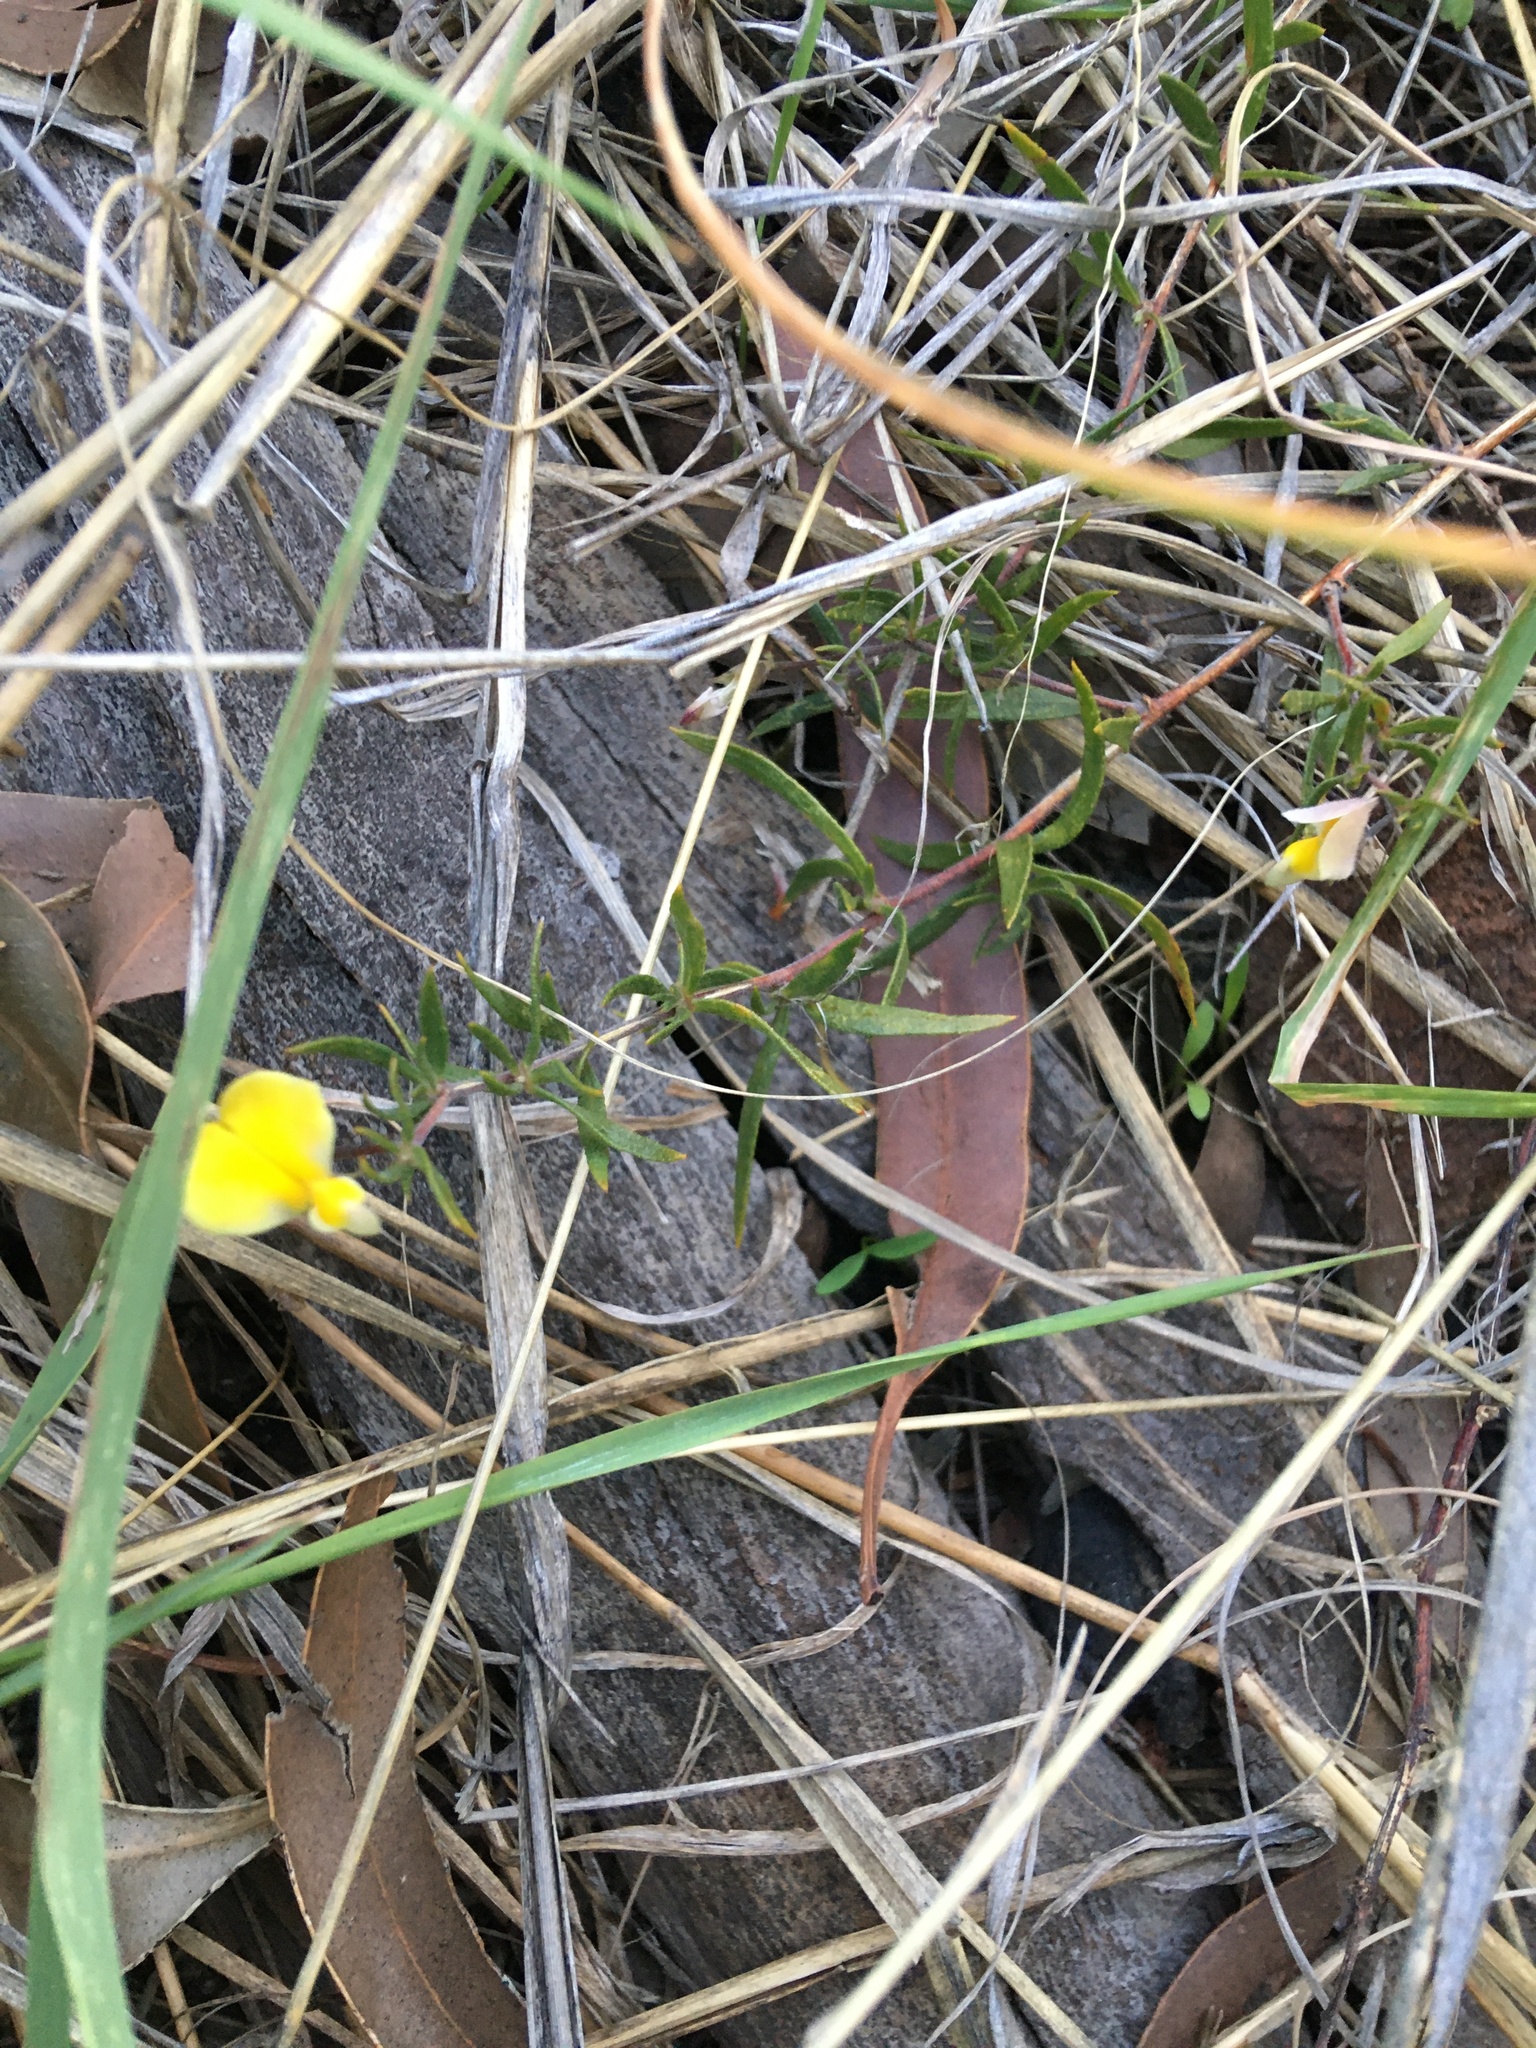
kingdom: Plantae
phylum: Tracheophyta
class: Magnoliopsida
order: Fabales
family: Fabaceae
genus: Aspalathus
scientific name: Aspalathus lanata
